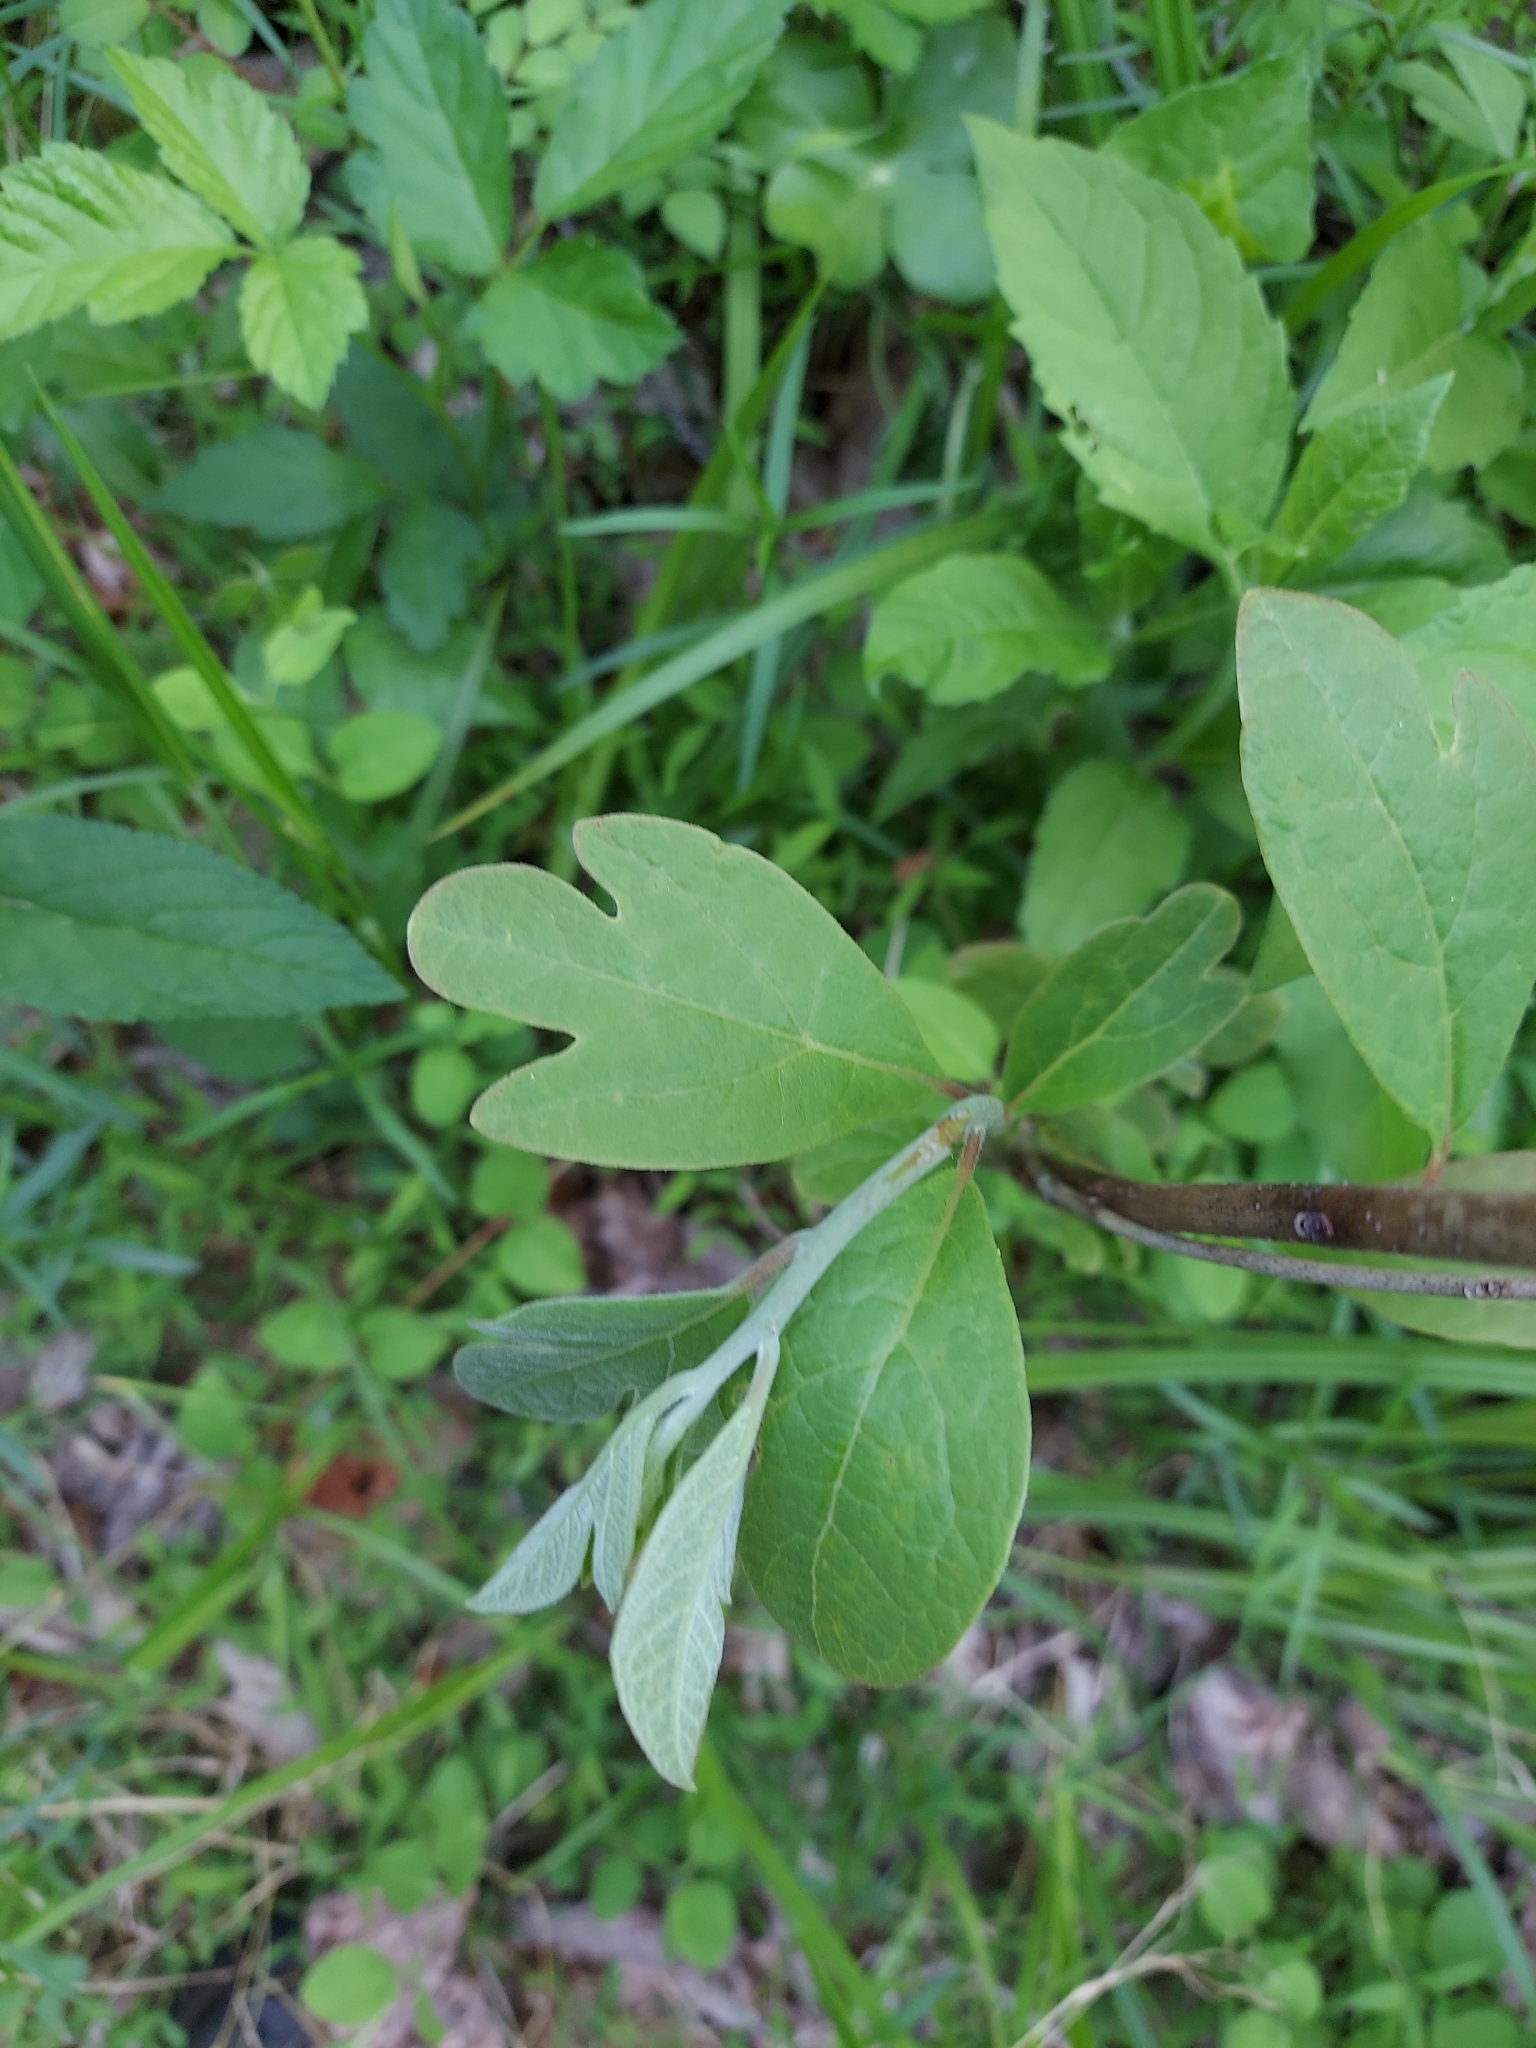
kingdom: Plantae
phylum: Tracheophyta
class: Magnoliopsida
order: Laurales
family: Lauraceae
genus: Sassafras
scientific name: Sassafras albidum
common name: Sassafras
